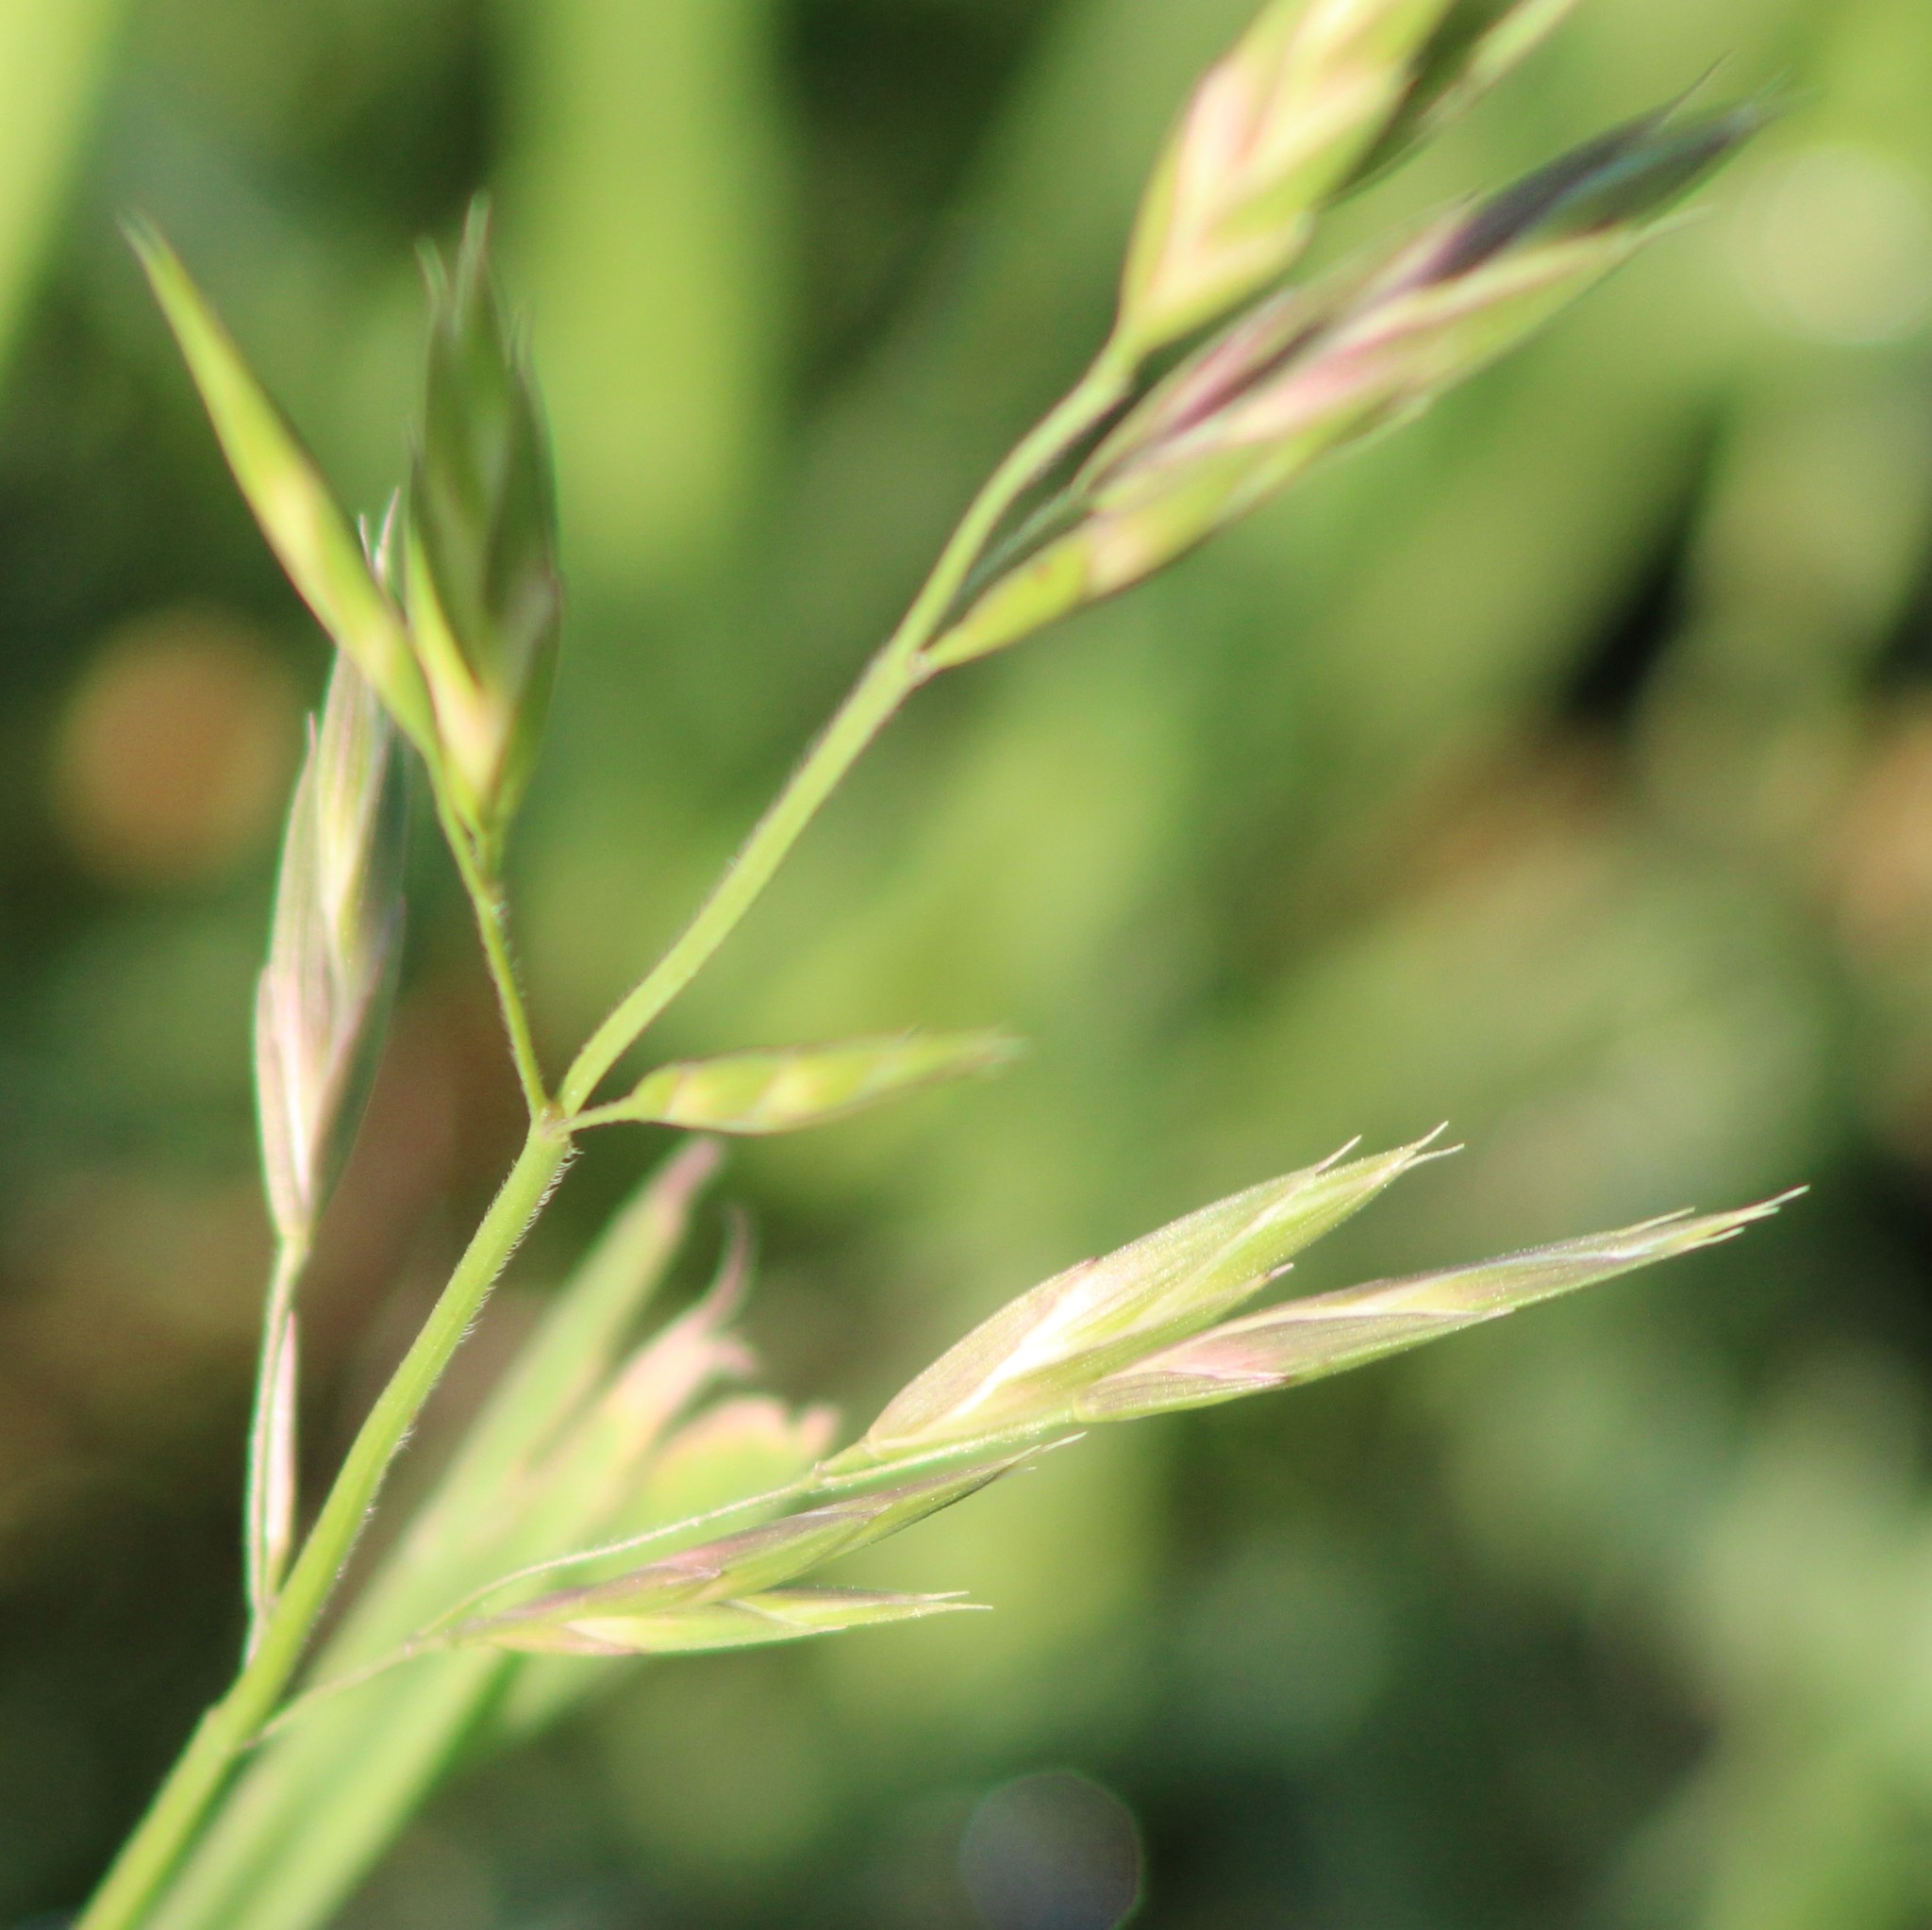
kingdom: Plantae
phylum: Tracheophyta
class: Liliopsida
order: Poales
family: Poaceae
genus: Bromus
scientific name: Bromus catharticus
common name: Rescuegrass
